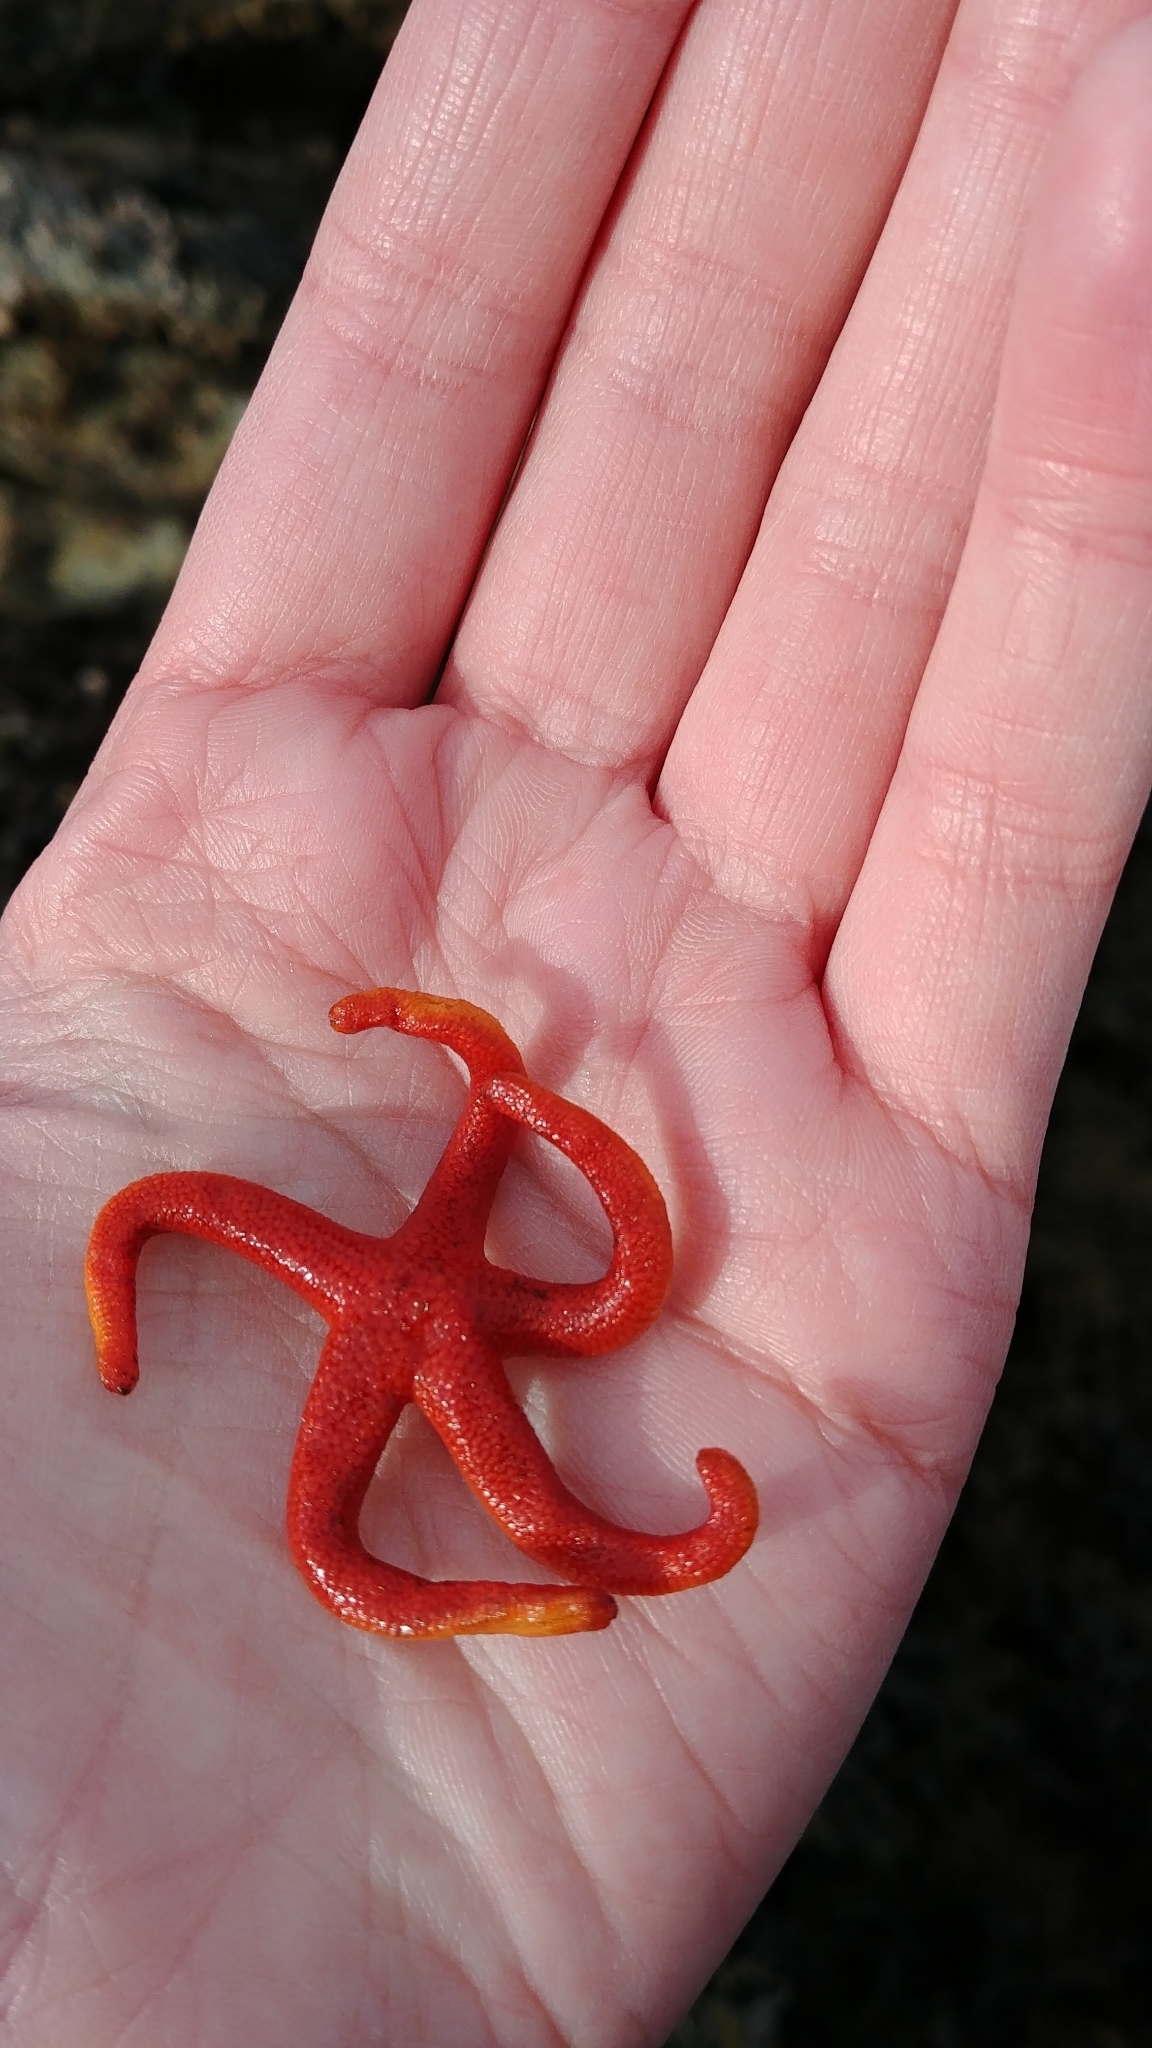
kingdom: Animalia
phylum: Echinodermata
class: Asteroidea
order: Spinulosida
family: Echinasteridae
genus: Henricia
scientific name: Henricia leviuscula
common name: Pacific blood star
